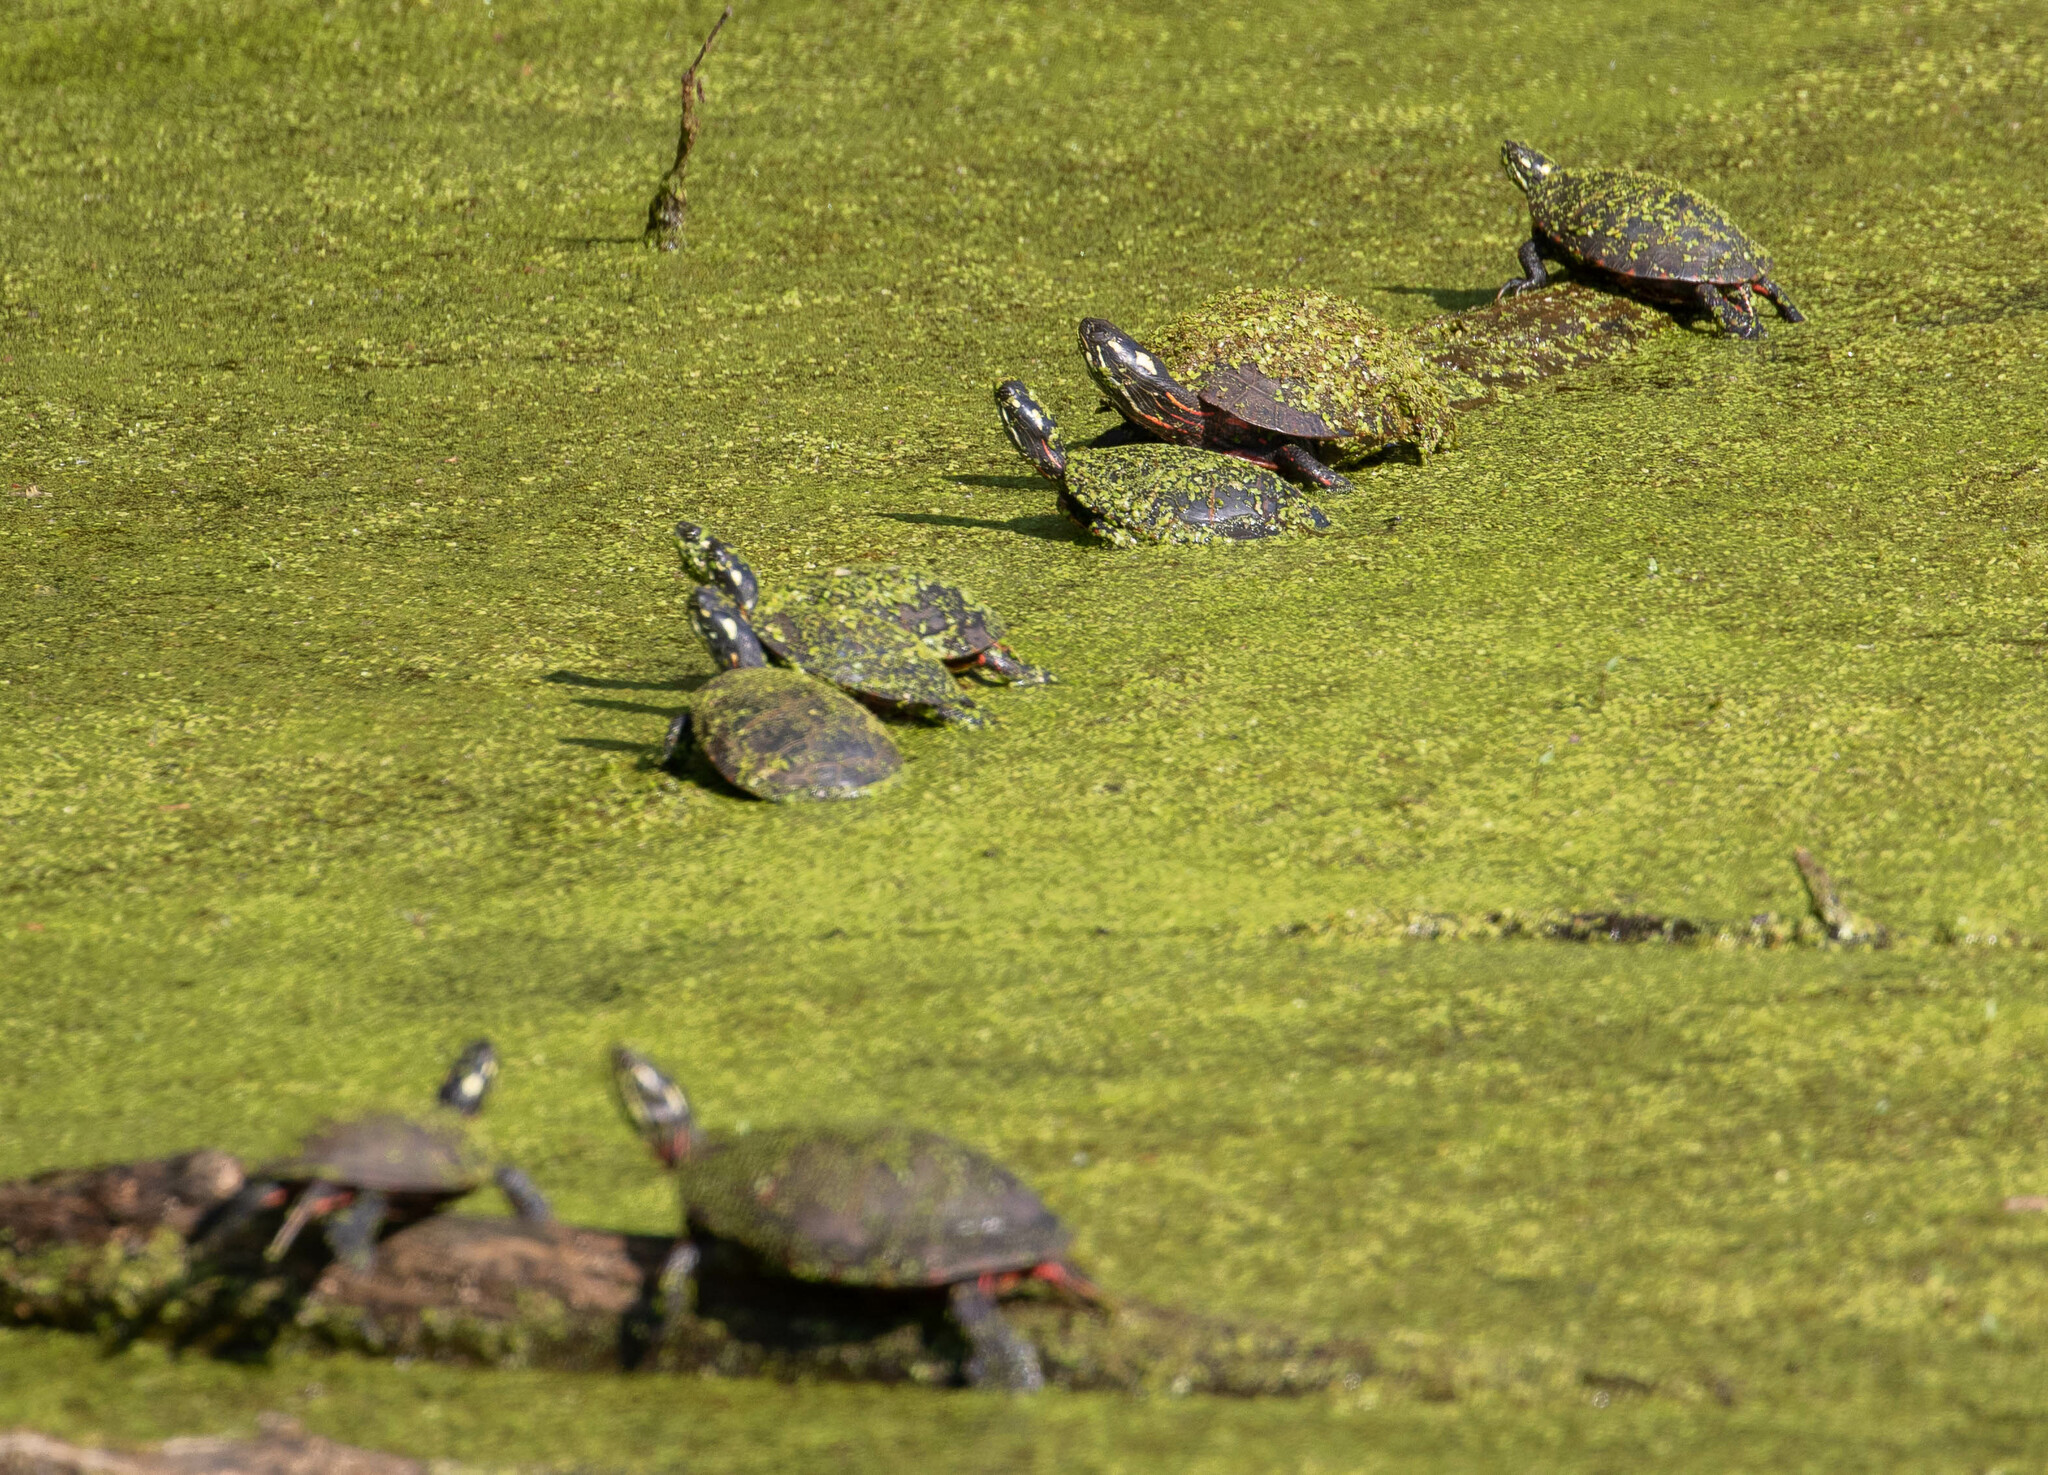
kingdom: Animalia
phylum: Chordata
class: Testudines
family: Emydidae
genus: Chrysemys
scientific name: Chrysemys picta
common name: Painted turtle
